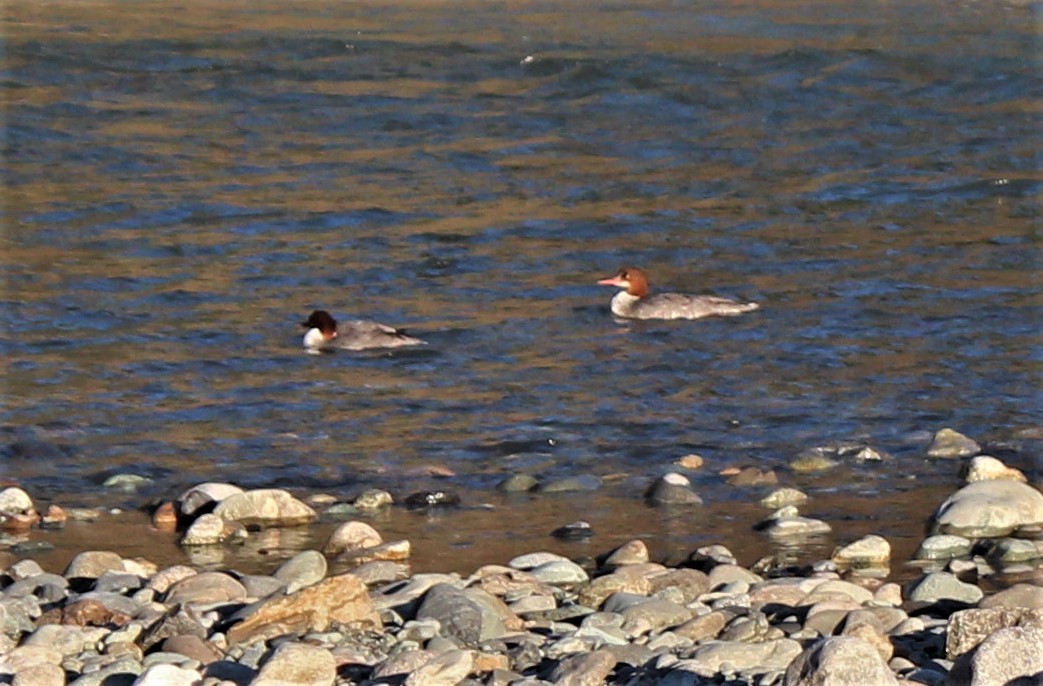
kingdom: Animalia
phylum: Chordata
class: Aves
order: Anseriformes
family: Anatidae
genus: Mergus
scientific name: Mergus merganser
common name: Common merganser
